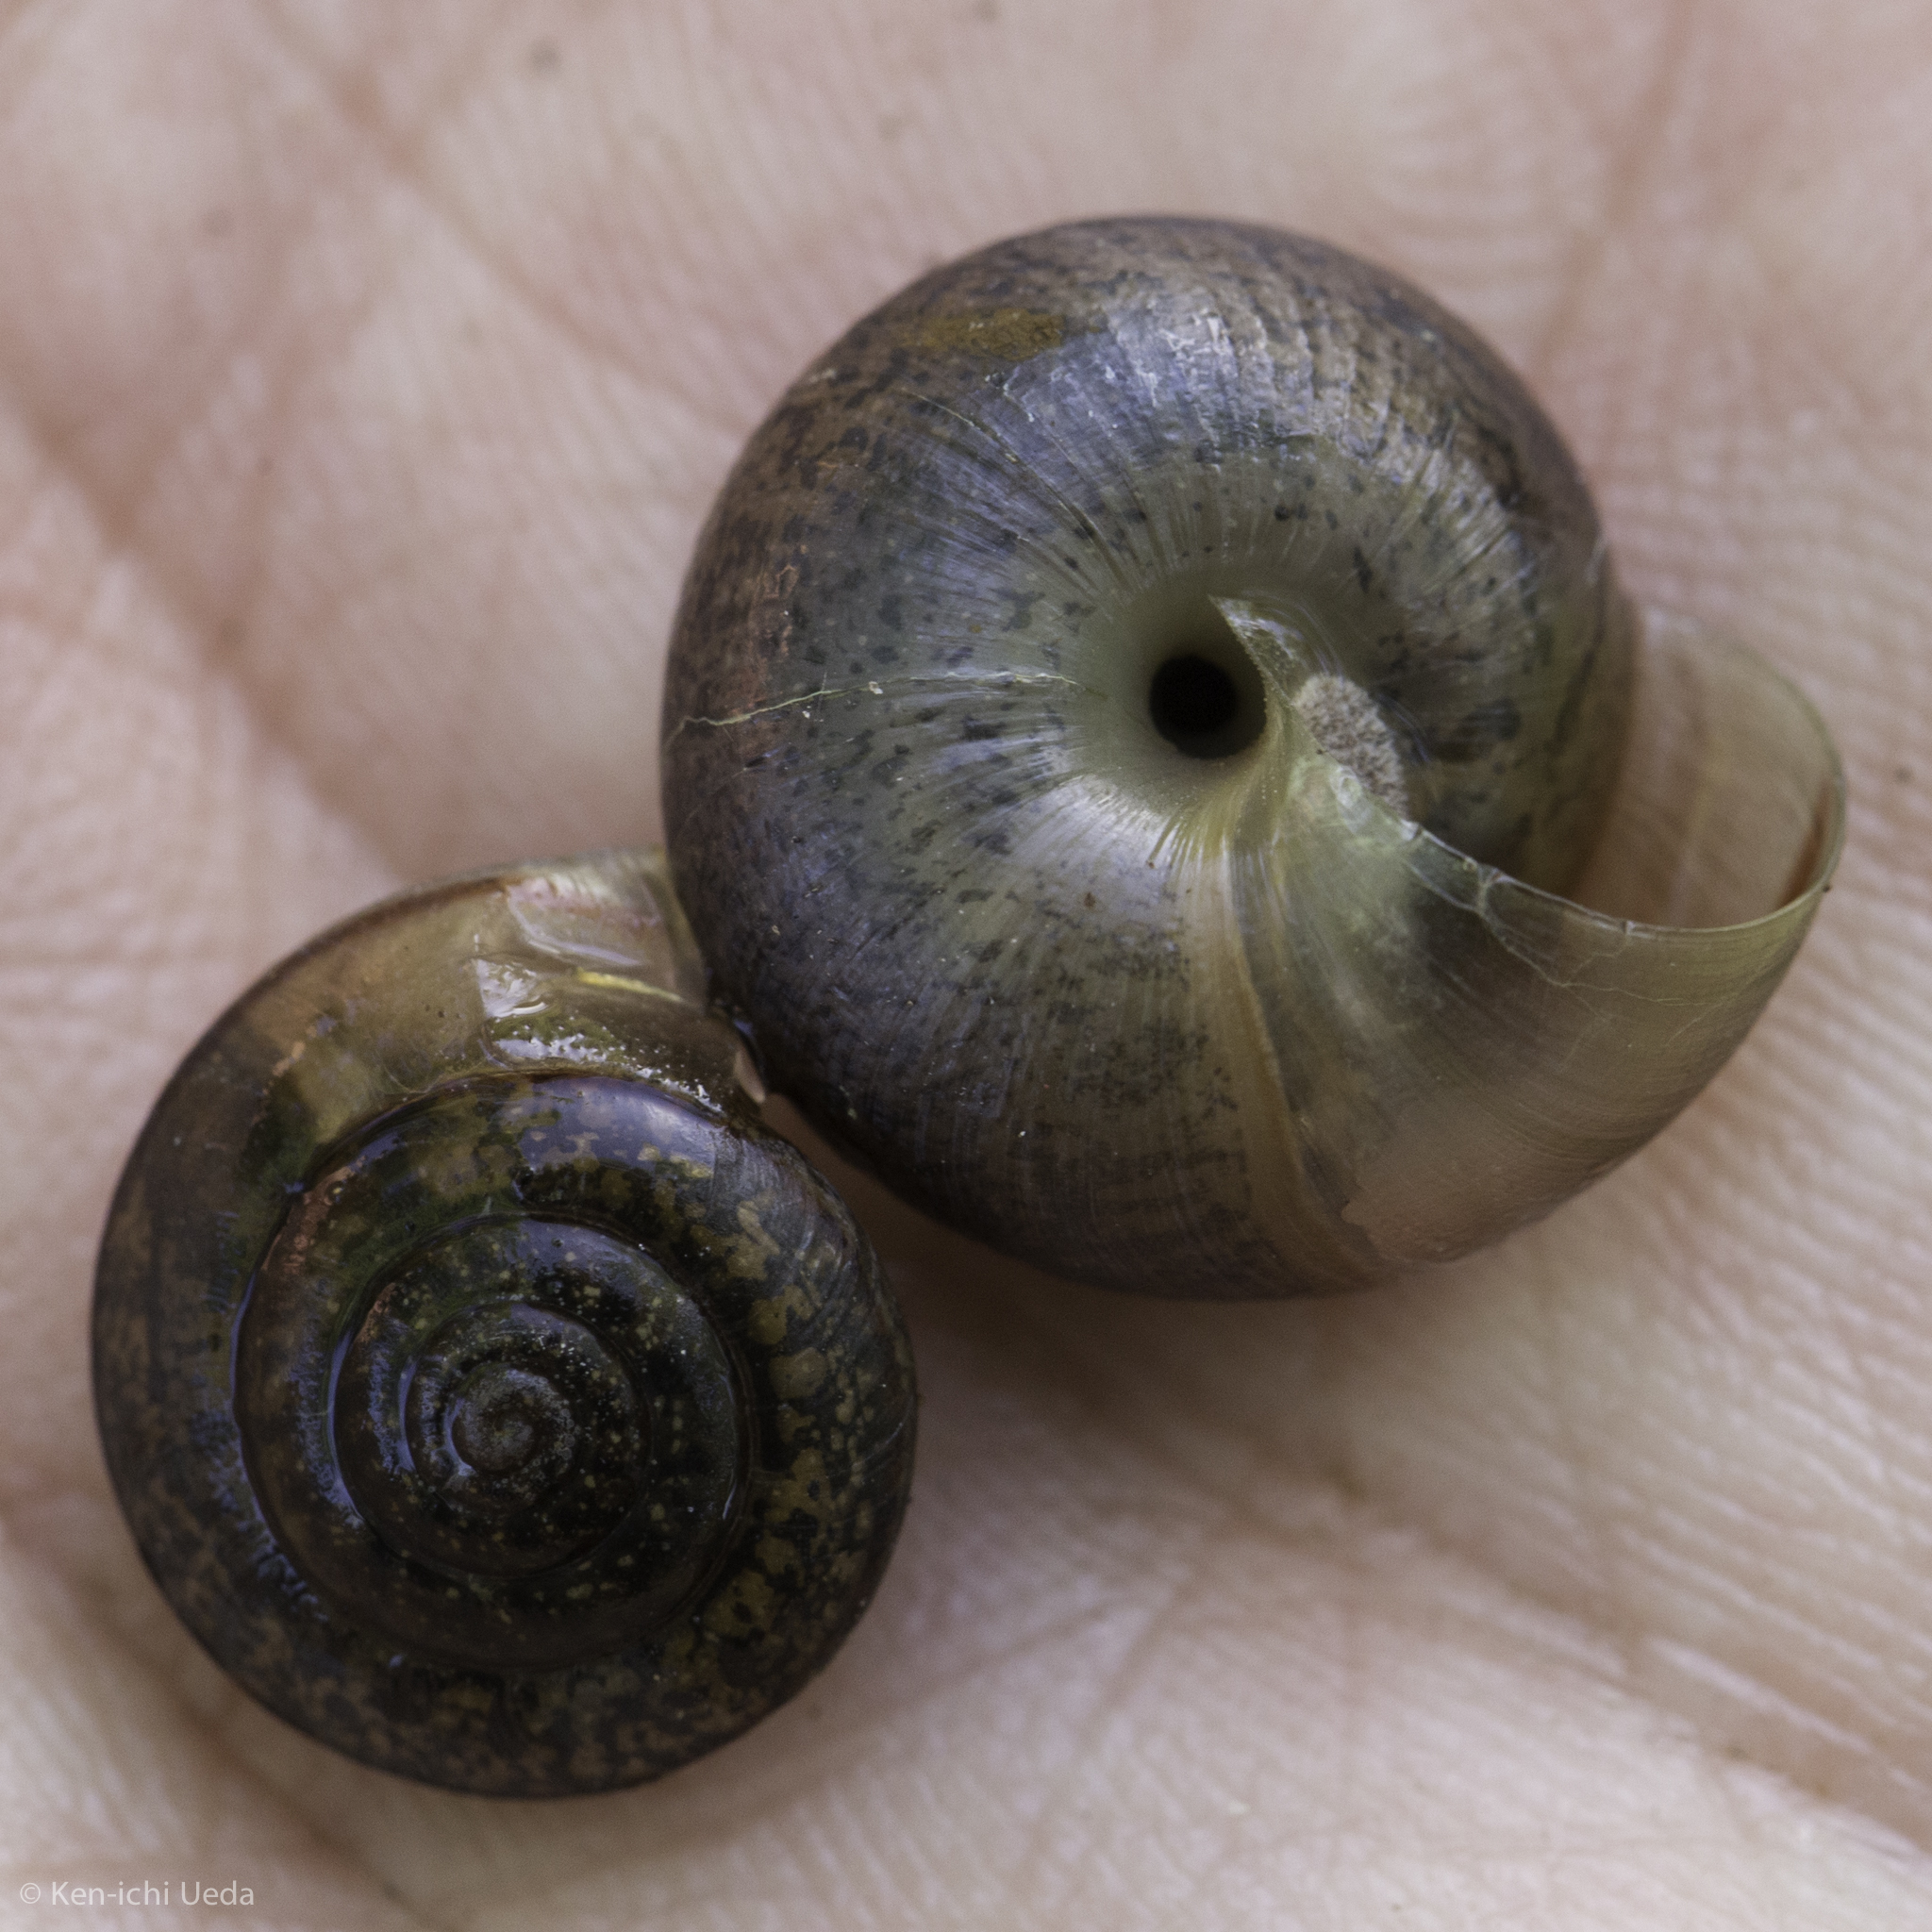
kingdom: Animalia
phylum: Mollusca
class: Gastropoda
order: Stylommatophora
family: Xanthonychidae
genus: Helminthoglypta
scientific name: Helminthoglypta contracostae
